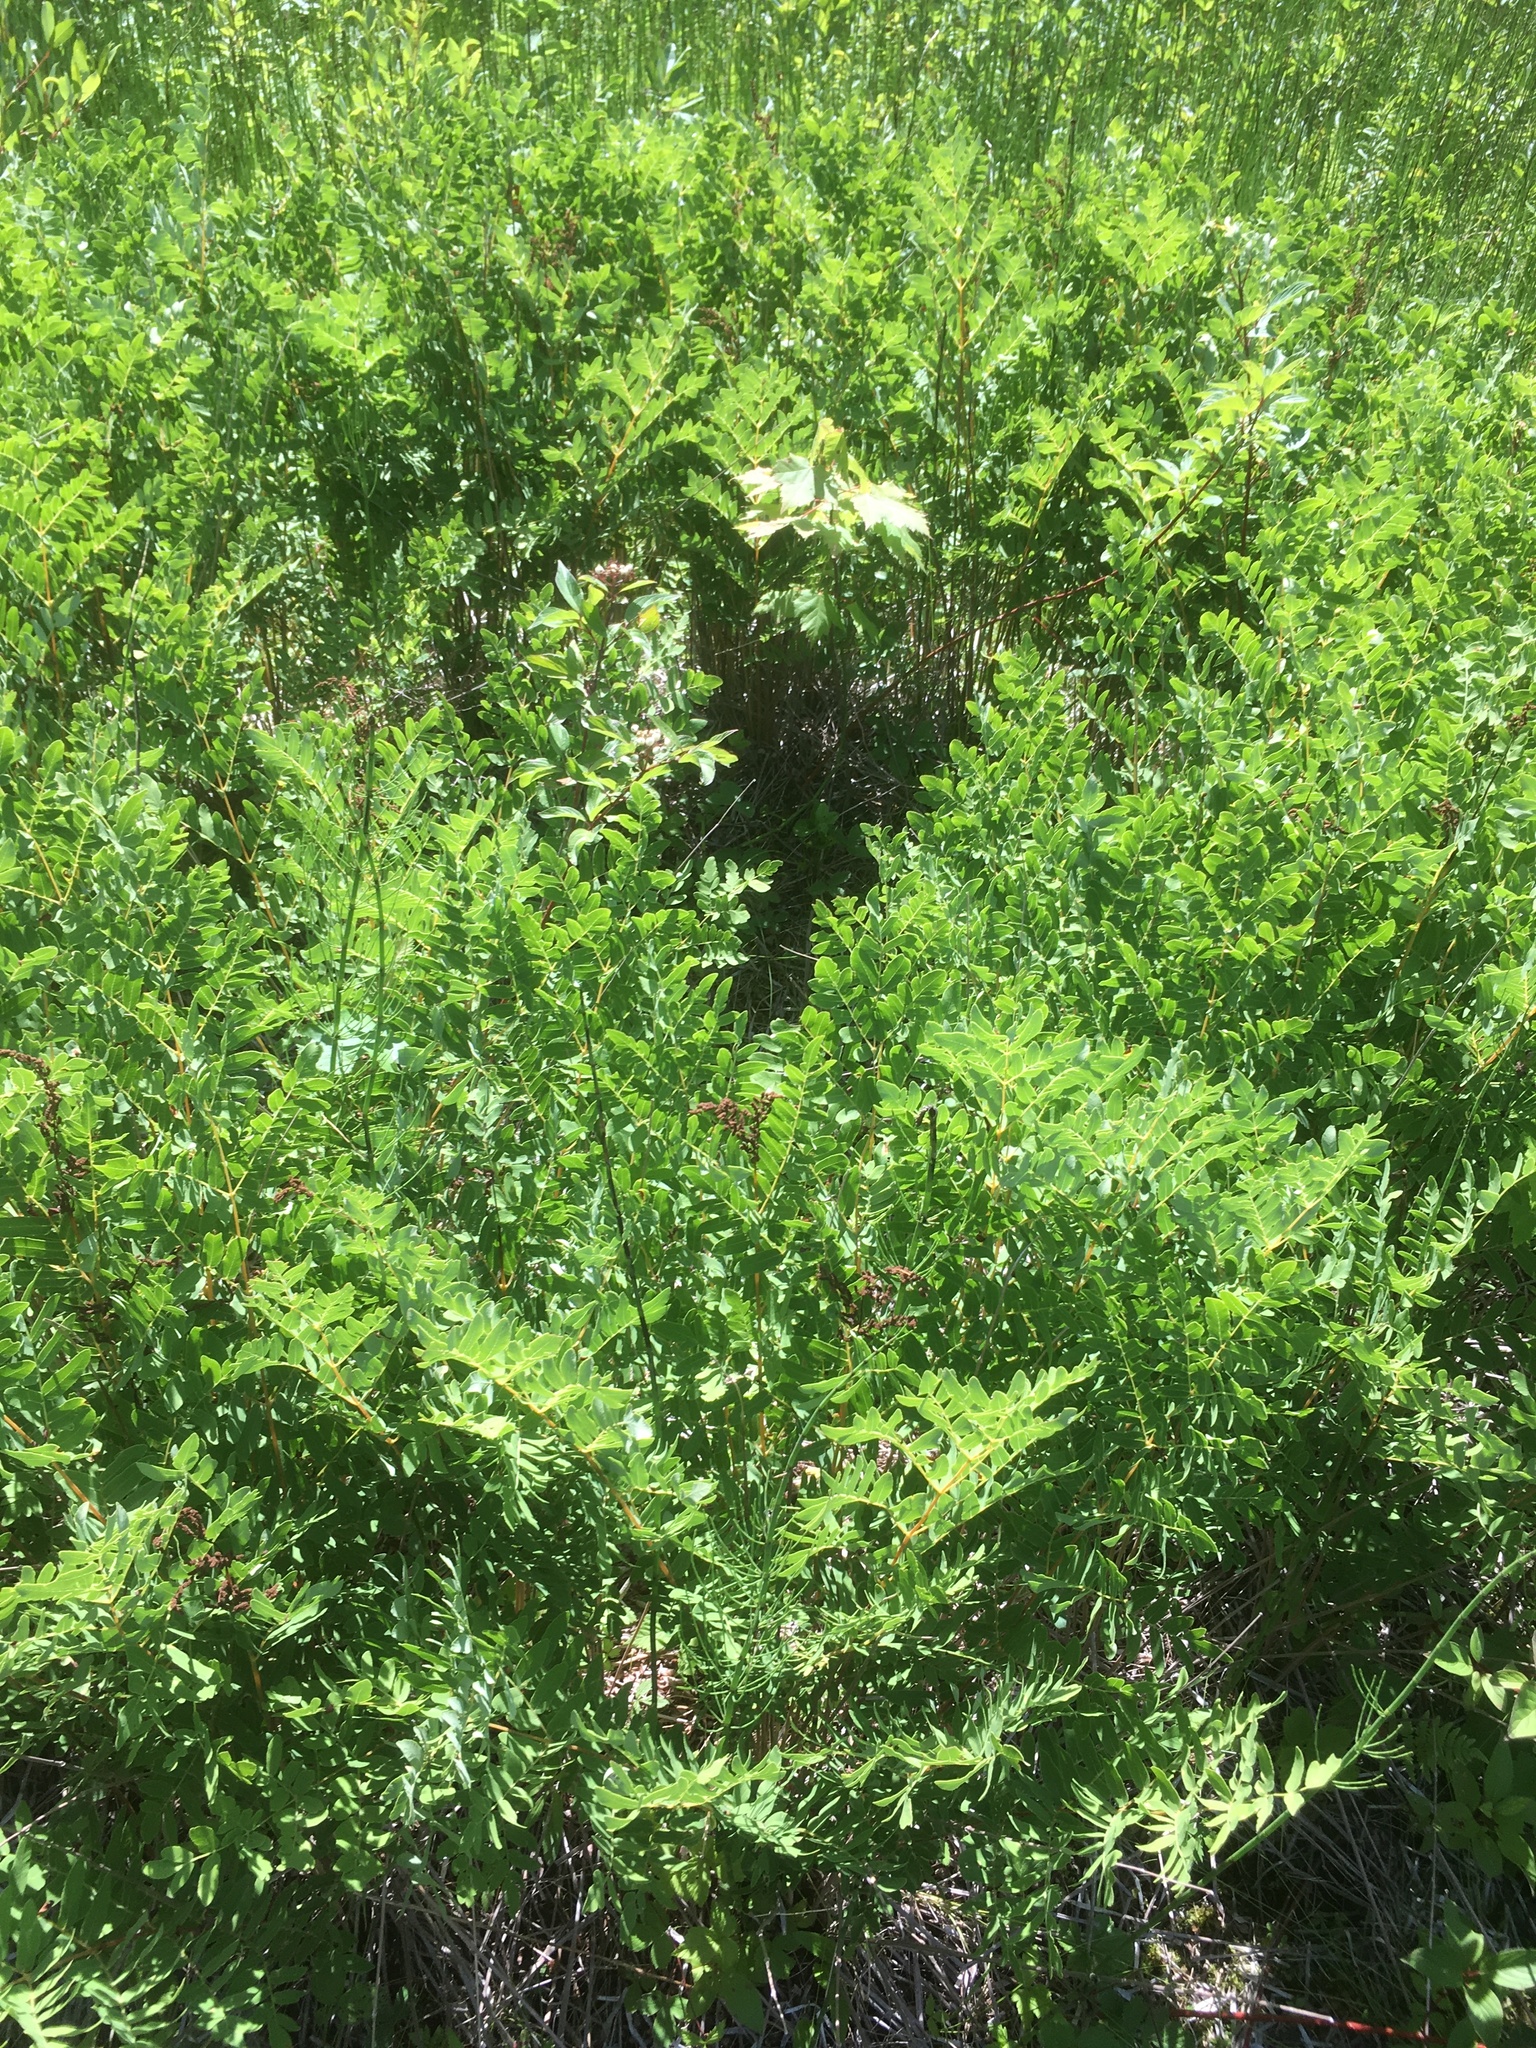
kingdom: Plantae
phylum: Tracheophyta
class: Polypodiopsida
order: Osmundales
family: Osmundaceae
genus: Osmunda
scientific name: Osmunda spectabilis
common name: American royal fern
